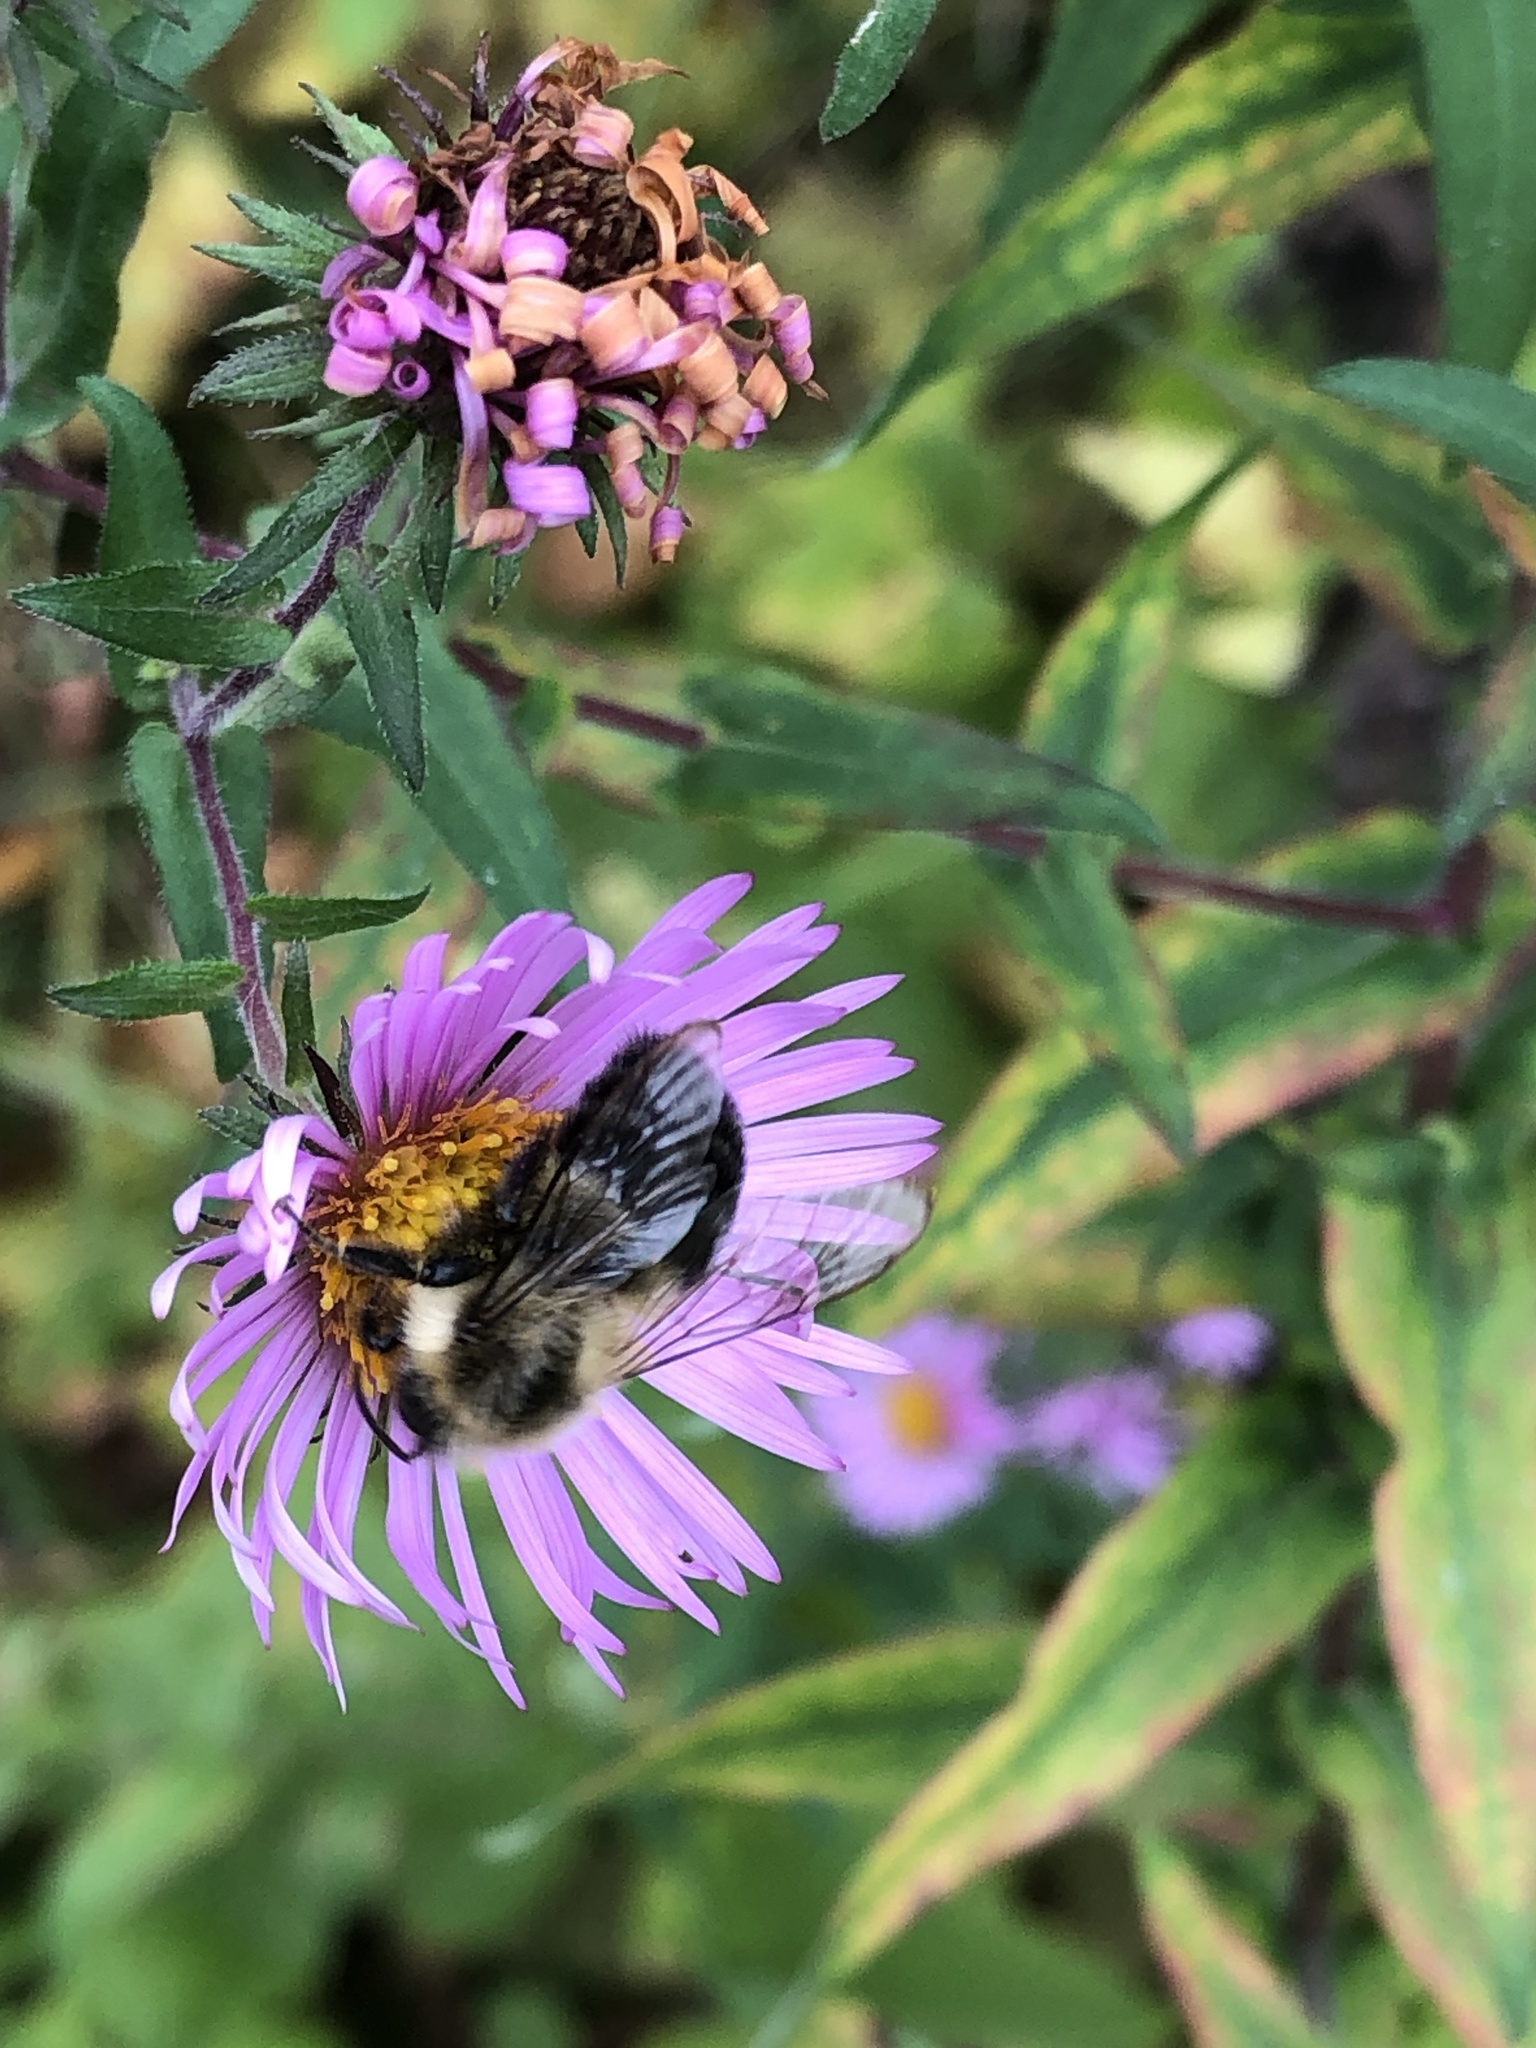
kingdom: Animalia
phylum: Arthropoda
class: Insecta
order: Hymenoptera
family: Apidae
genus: Bombus
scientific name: Bombus impatiens
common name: Common eastern bumble bee
